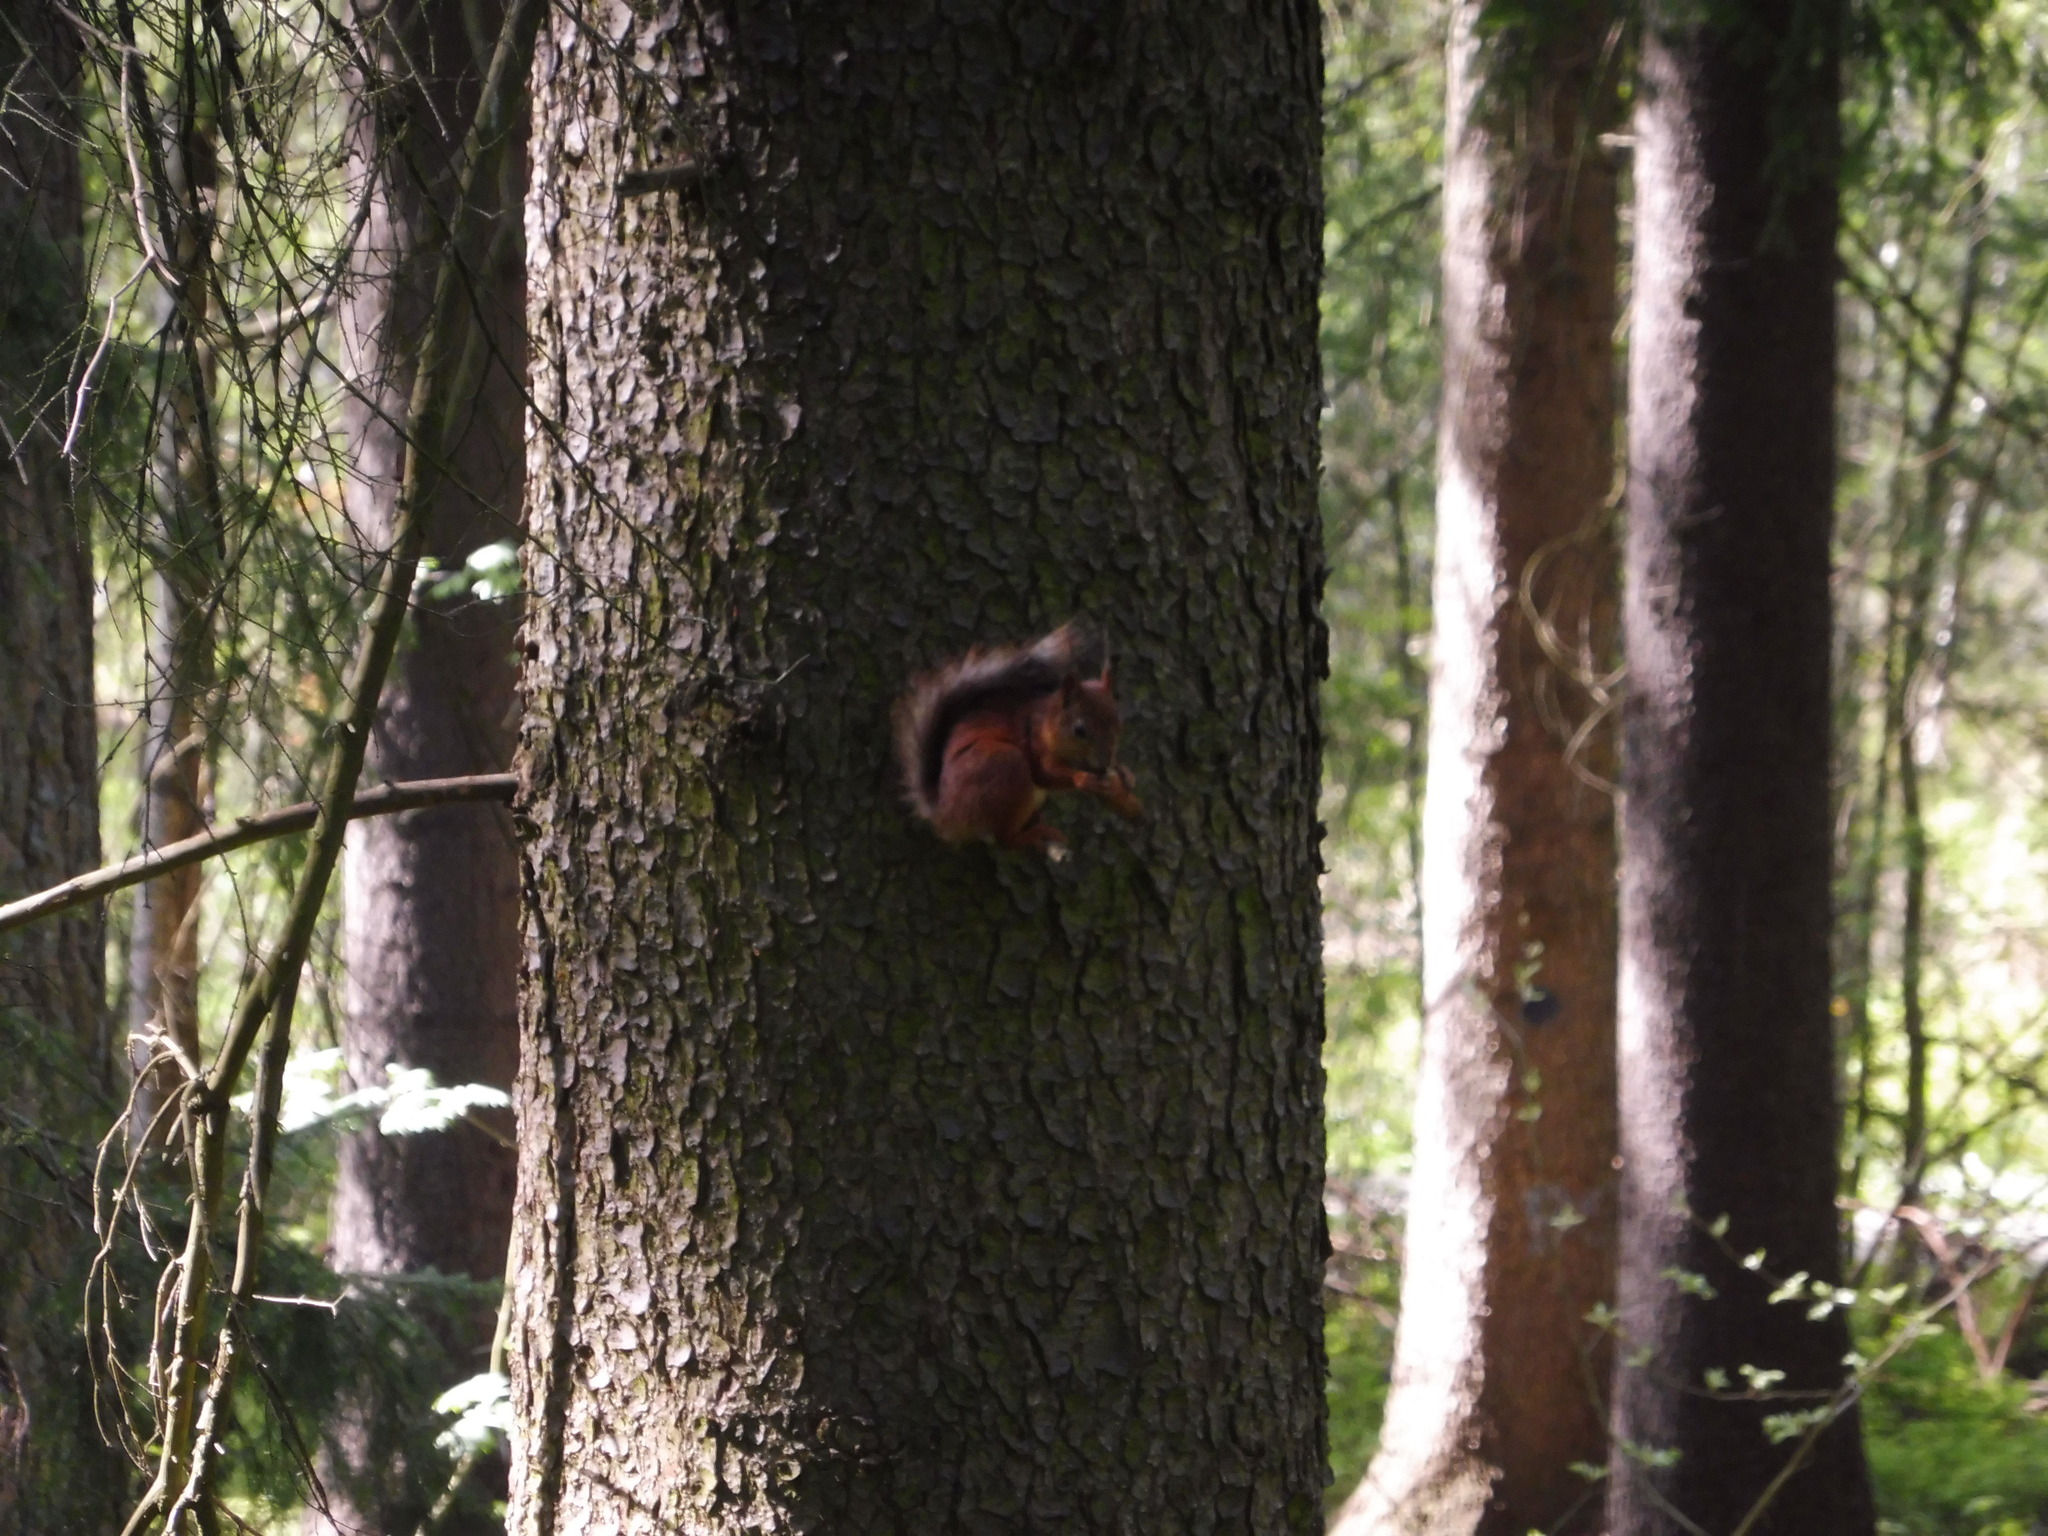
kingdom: Animalia
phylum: Chordata
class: Mammalia
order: Rodentia
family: Sciuridae
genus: Sciurus
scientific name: Sciurus vulgaris
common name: Eurasian red squirrel
